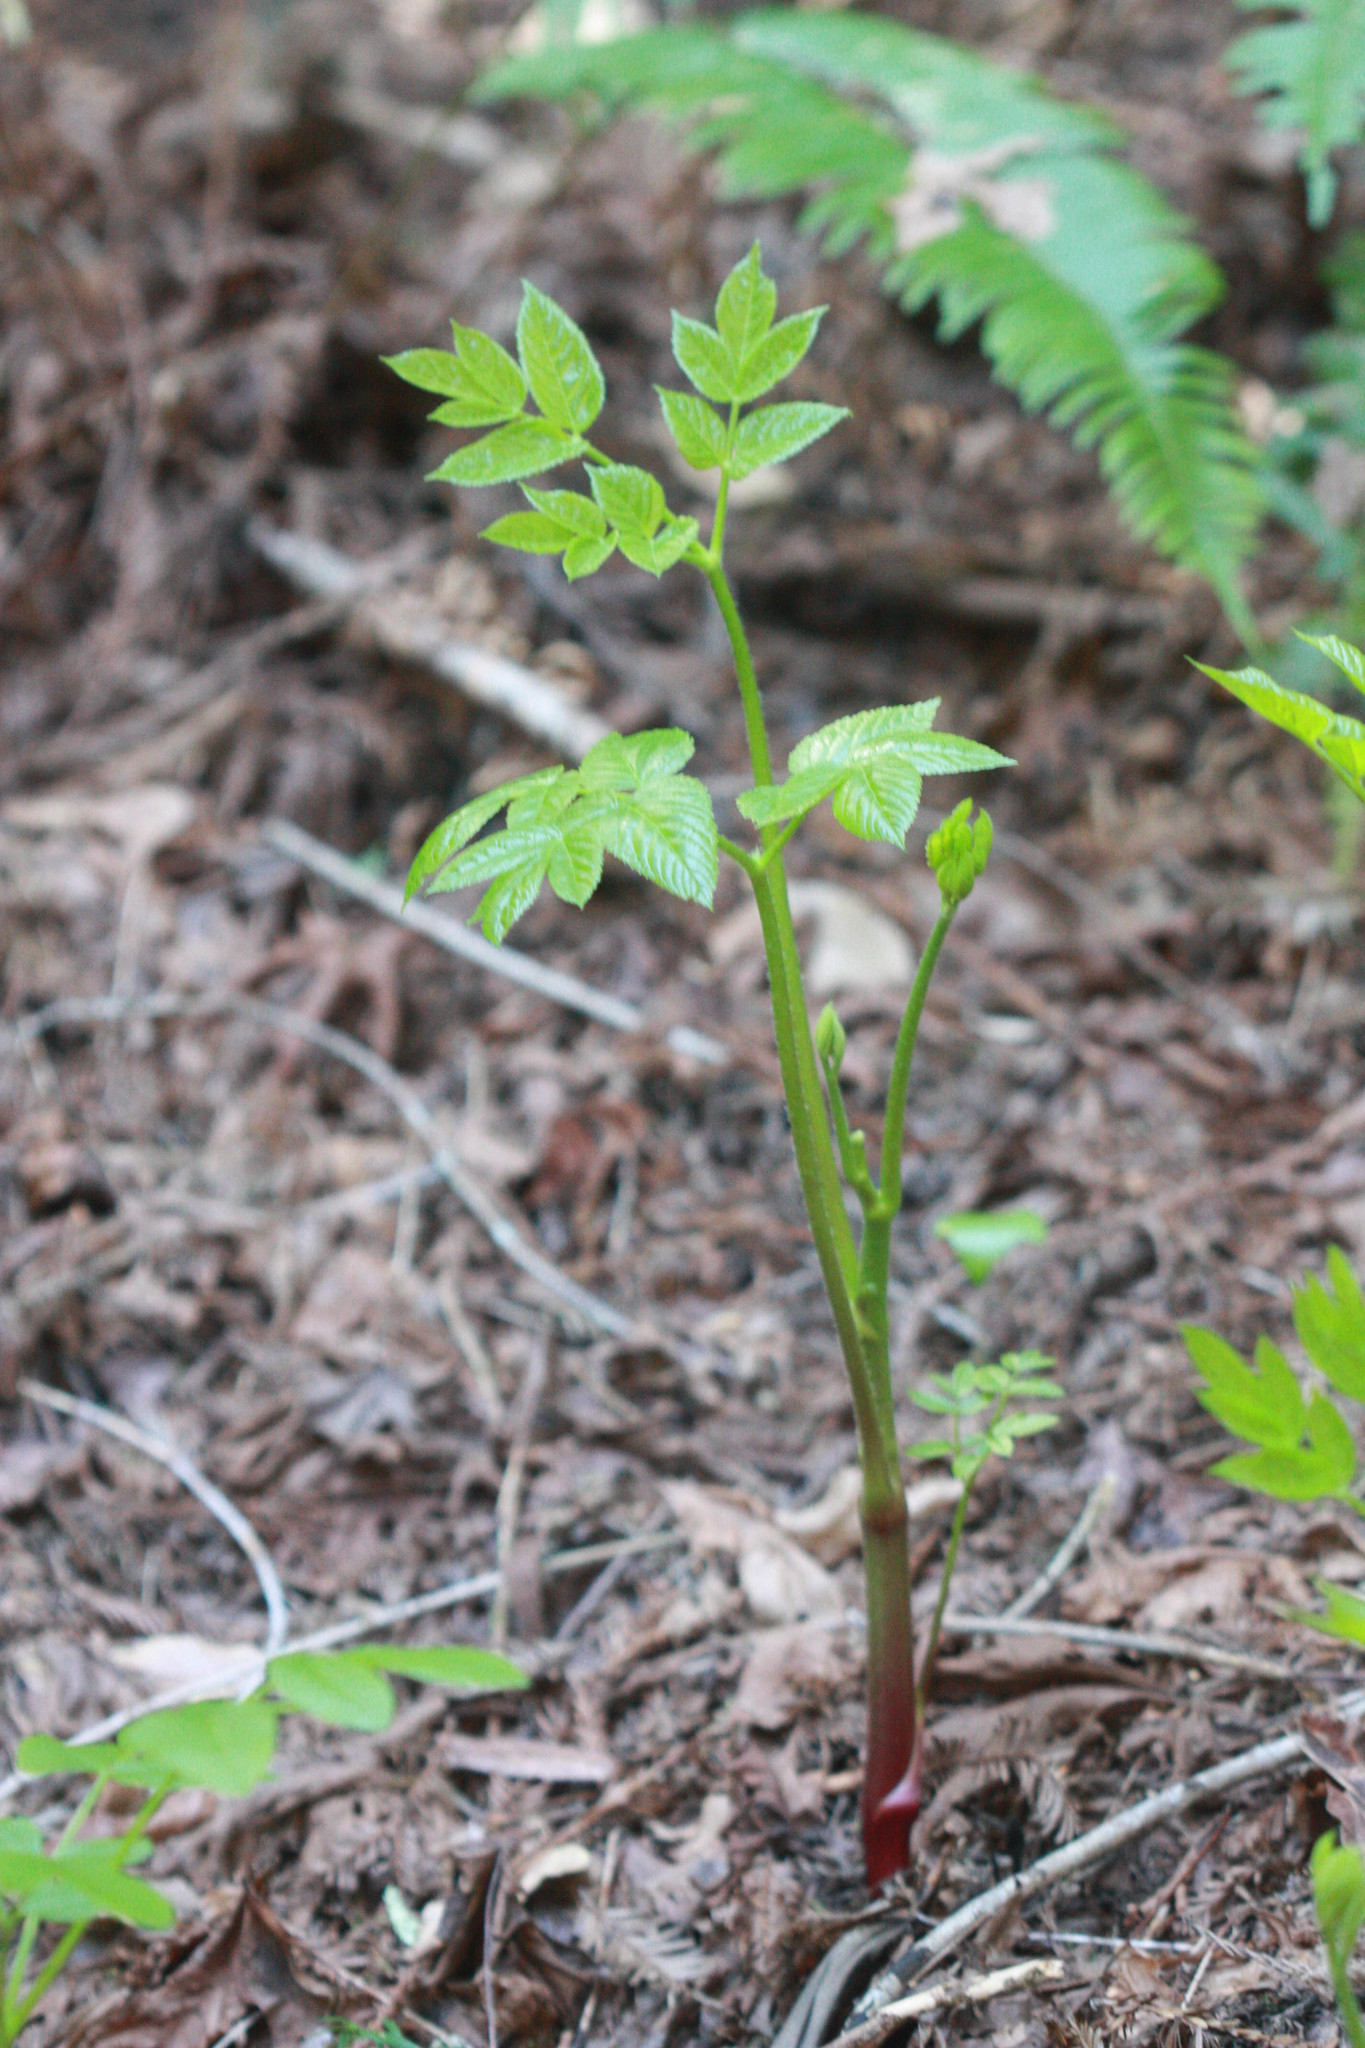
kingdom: Plantae
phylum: Tracheophyta
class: Magnoliopsida
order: Apiales
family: Araliaceae
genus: Aralia
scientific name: Aralia californica
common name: California-ginseng
